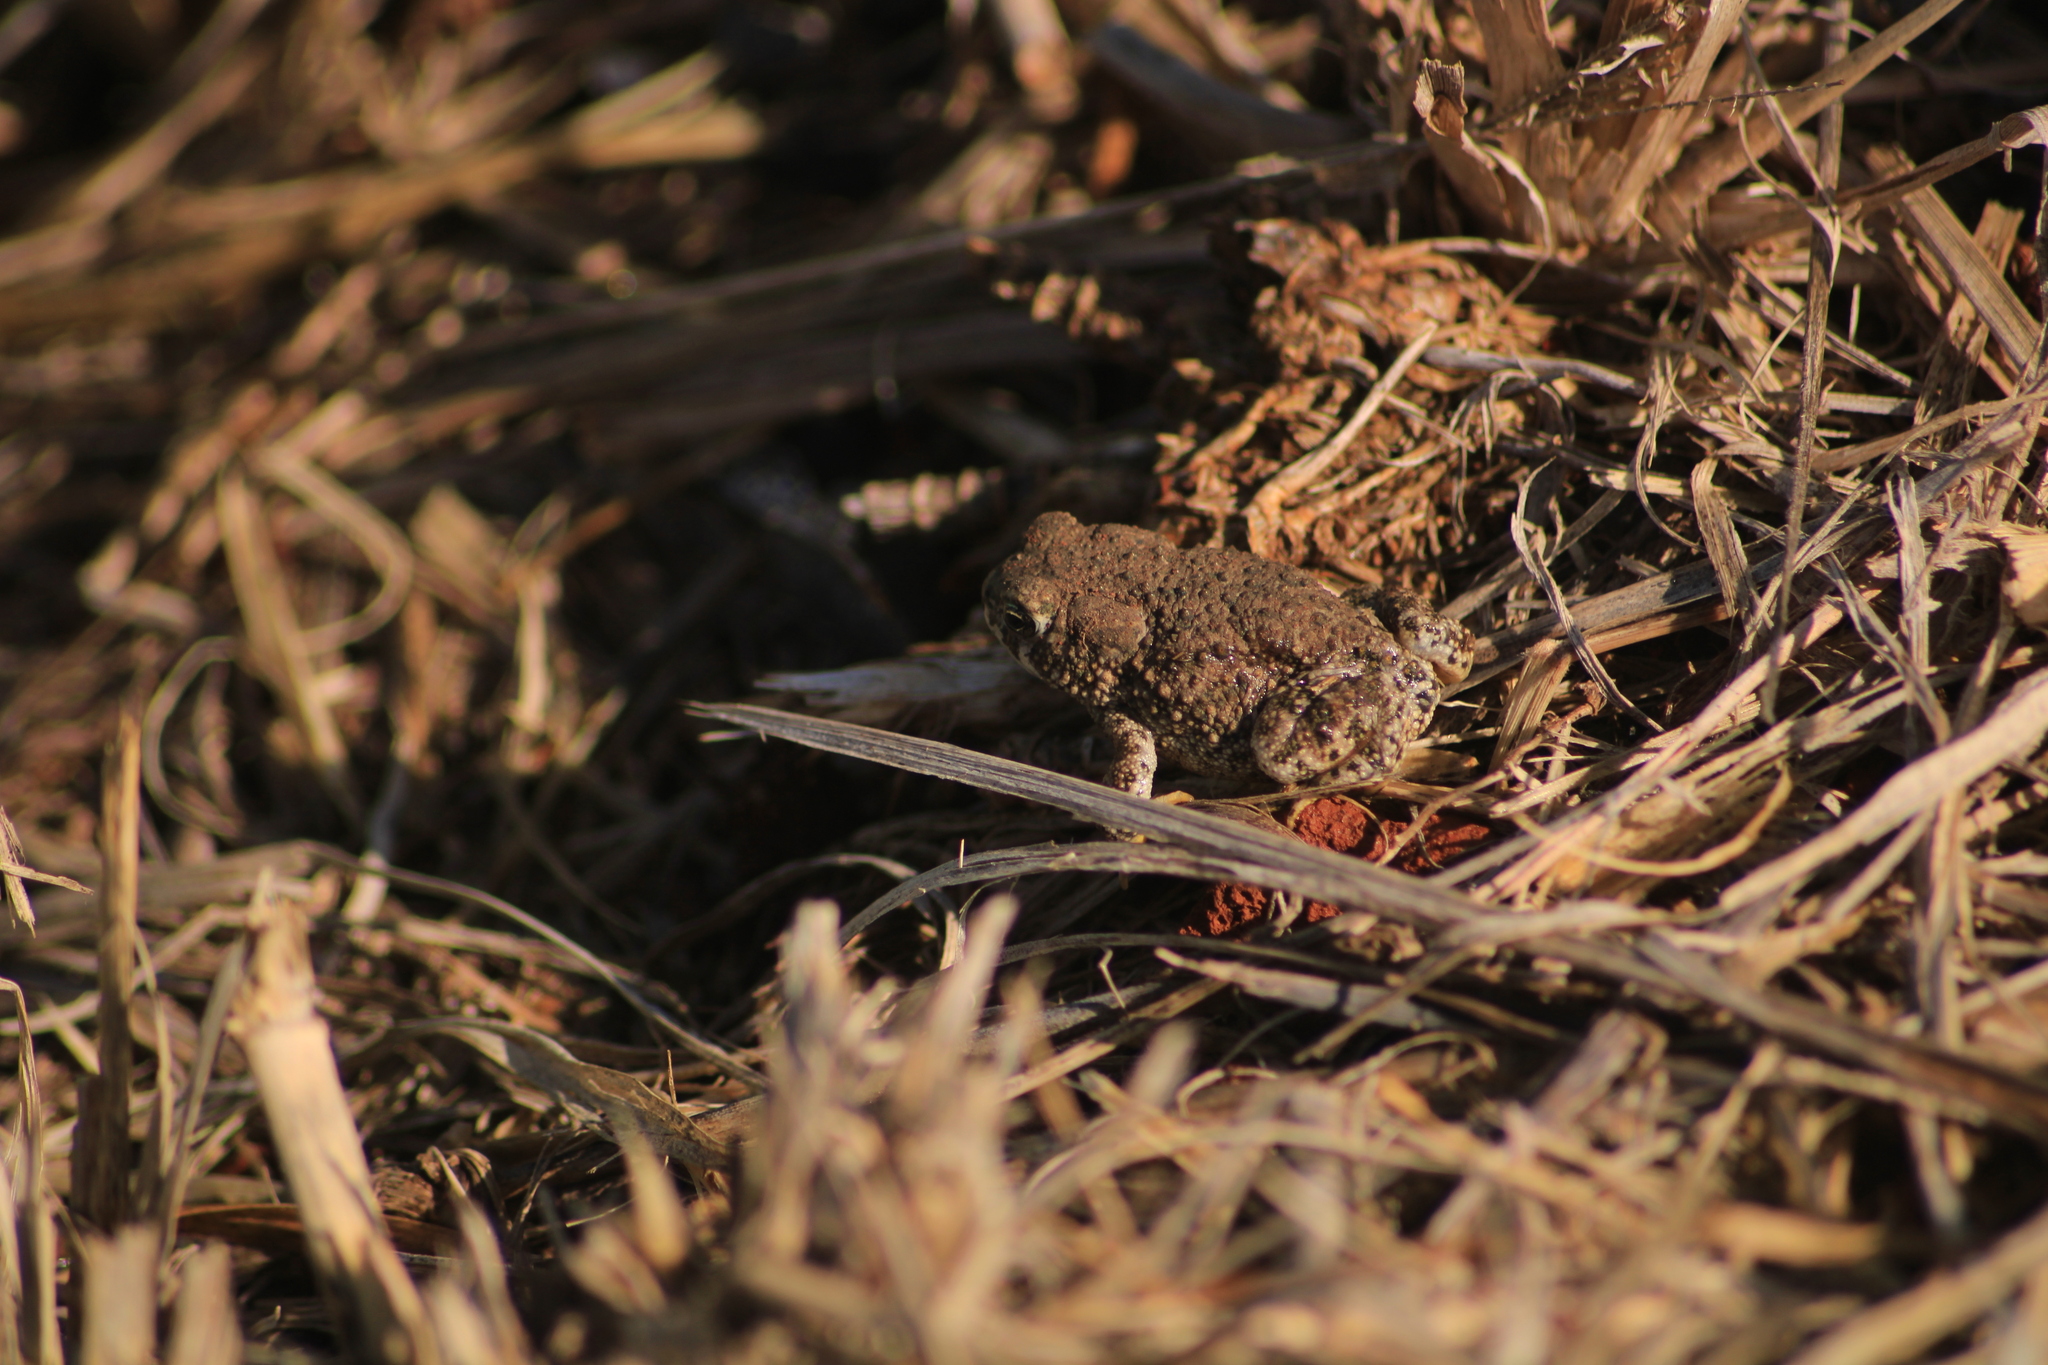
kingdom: Animalia
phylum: Chordata
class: Amphibia
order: Anura
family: Bufonidae
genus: Anaxyrus
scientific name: Anaxyrus compactilis
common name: Plateau toad
